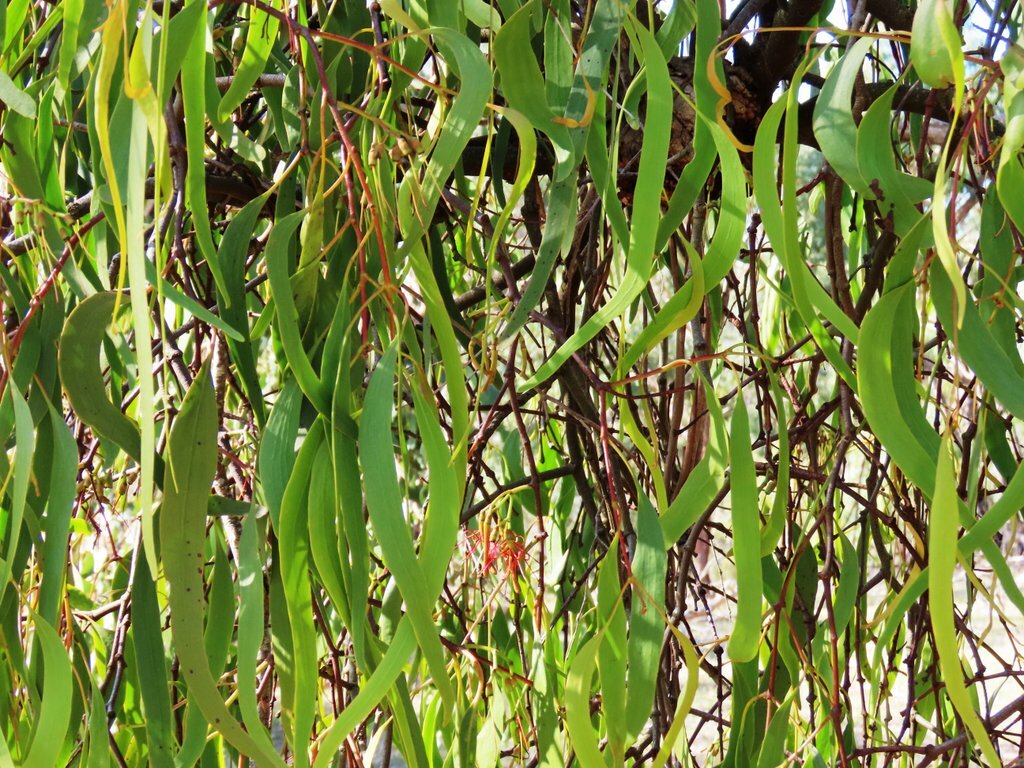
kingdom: Plantae
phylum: Tracheophyta
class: Magnoliopsida
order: Santalales
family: Loranthaceae
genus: Amyema
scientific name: Amyema miquelii
